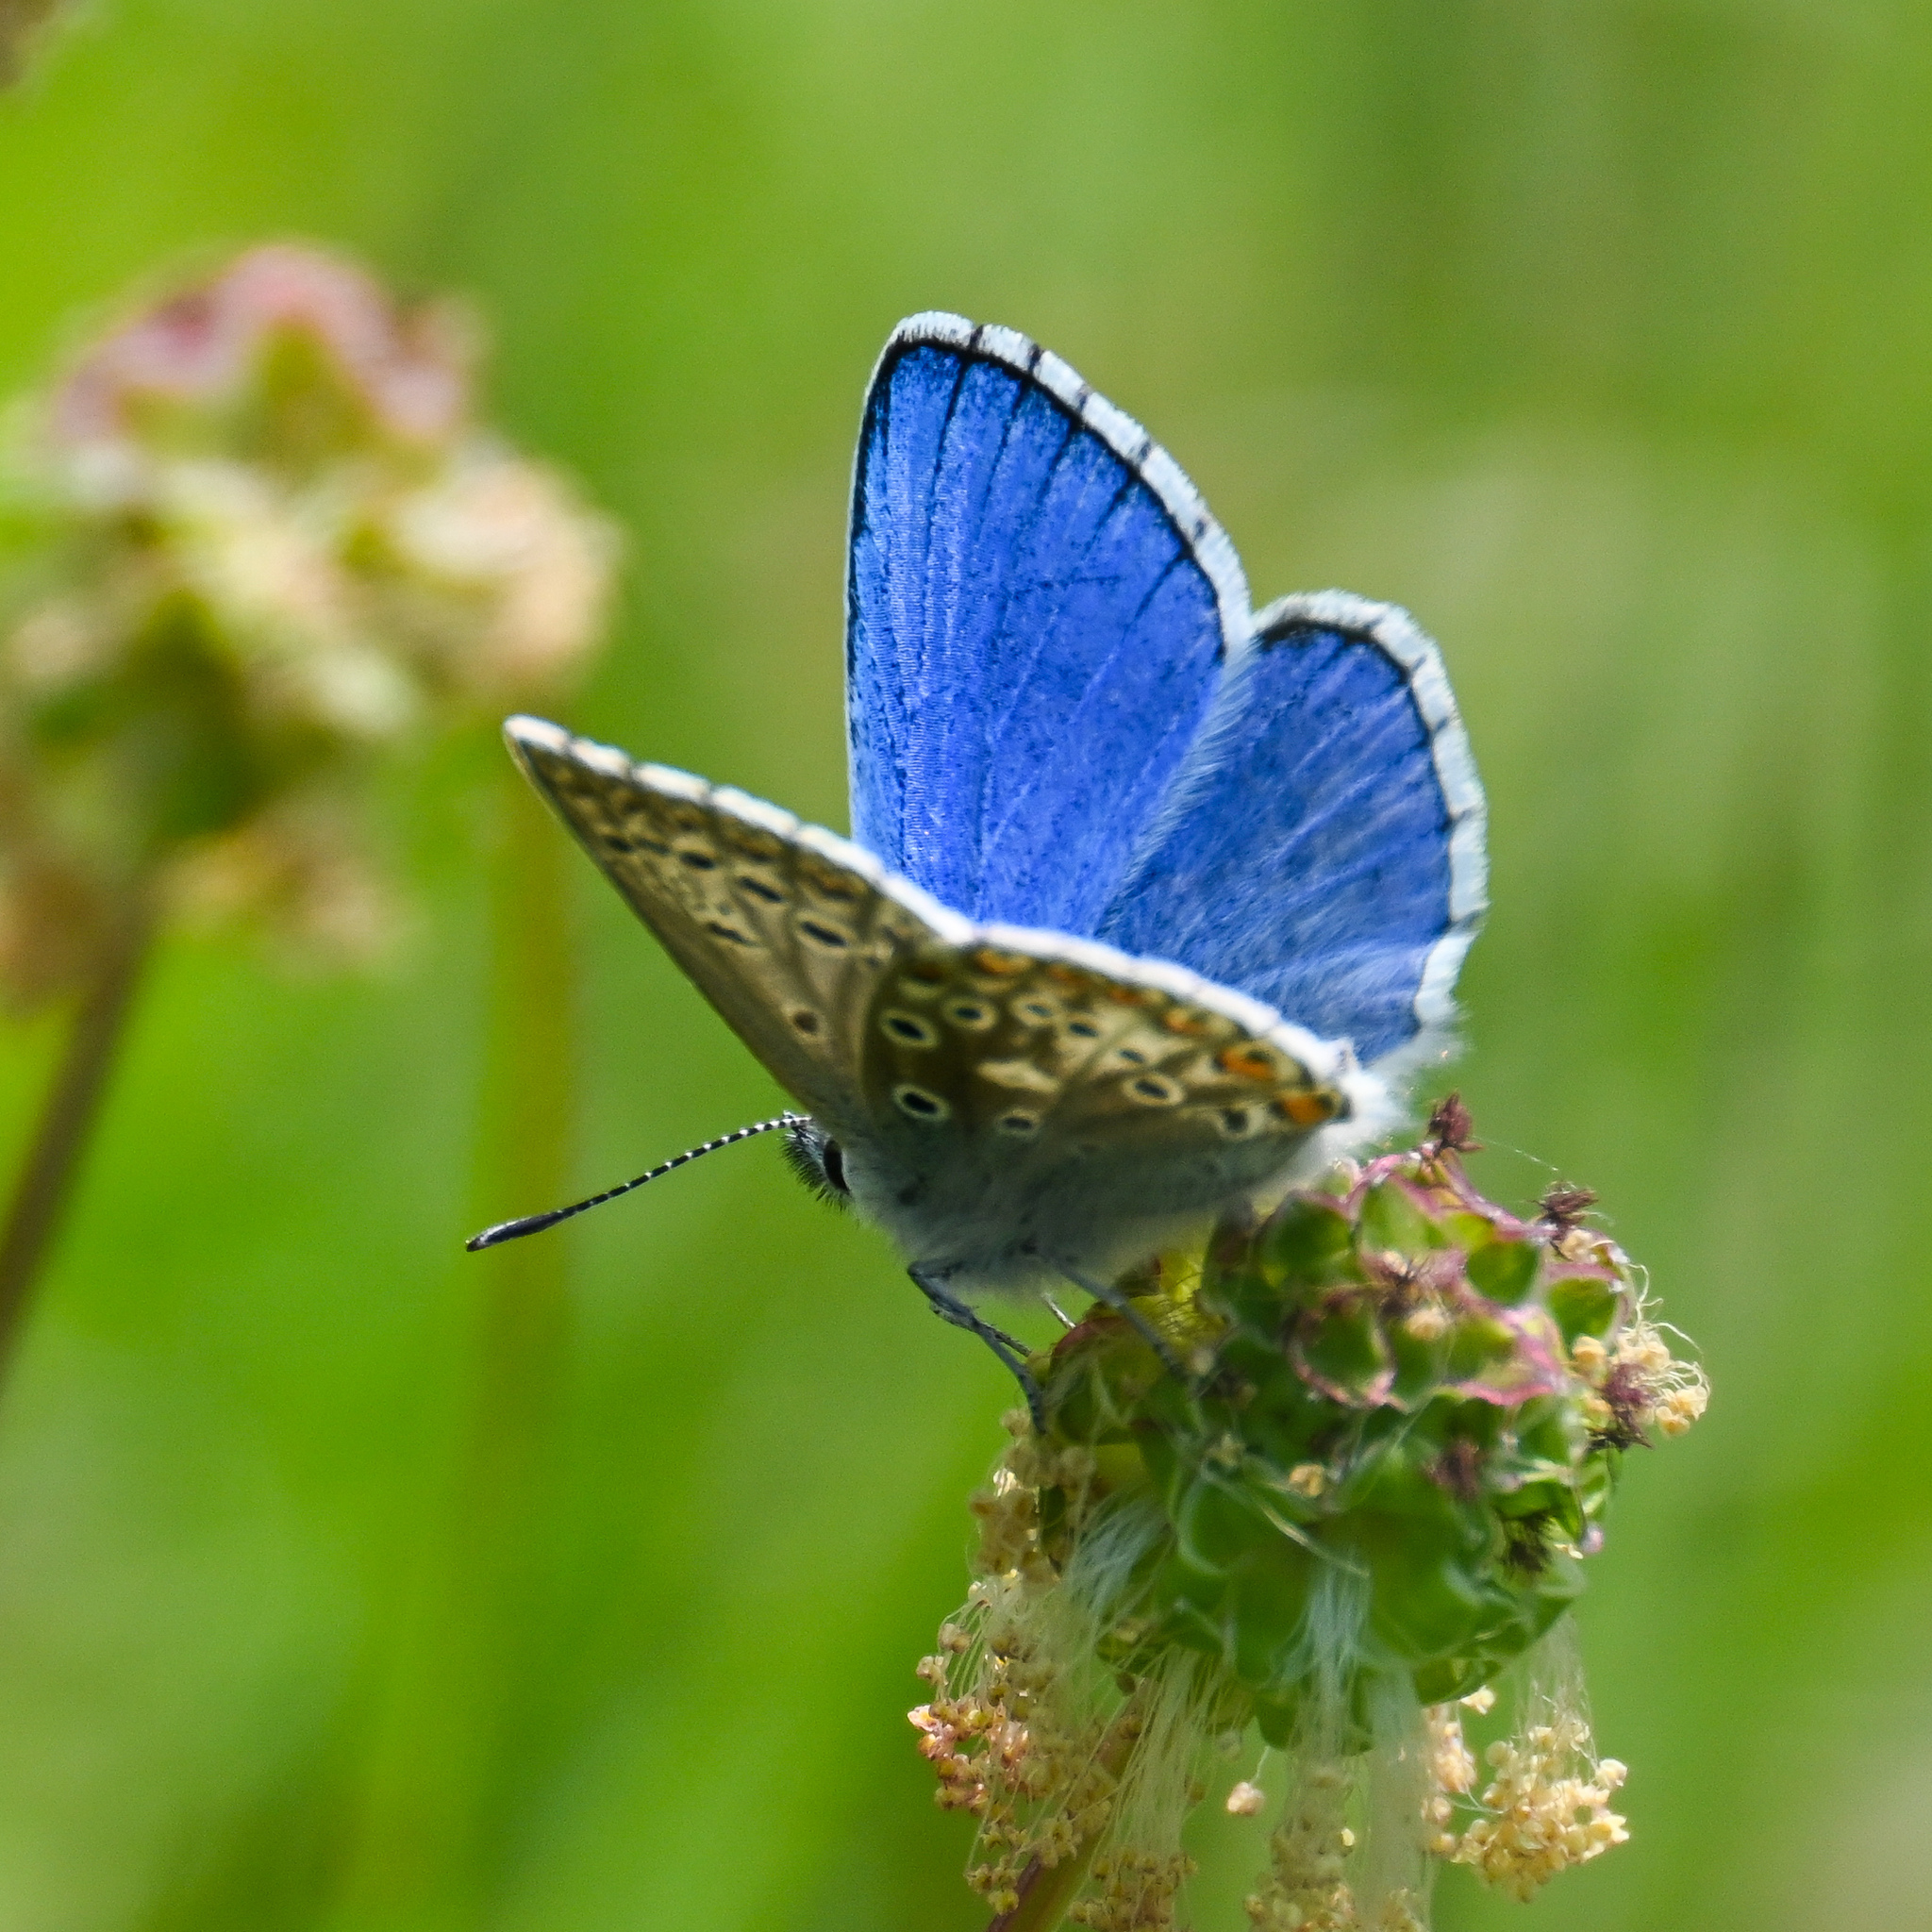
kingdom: Animalia
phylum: Arthropoda
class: Insecta
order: Lepidoptera
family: Lycaenidae
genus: Lysandra
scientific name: Lysandra bellargus
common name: Adonis blue
